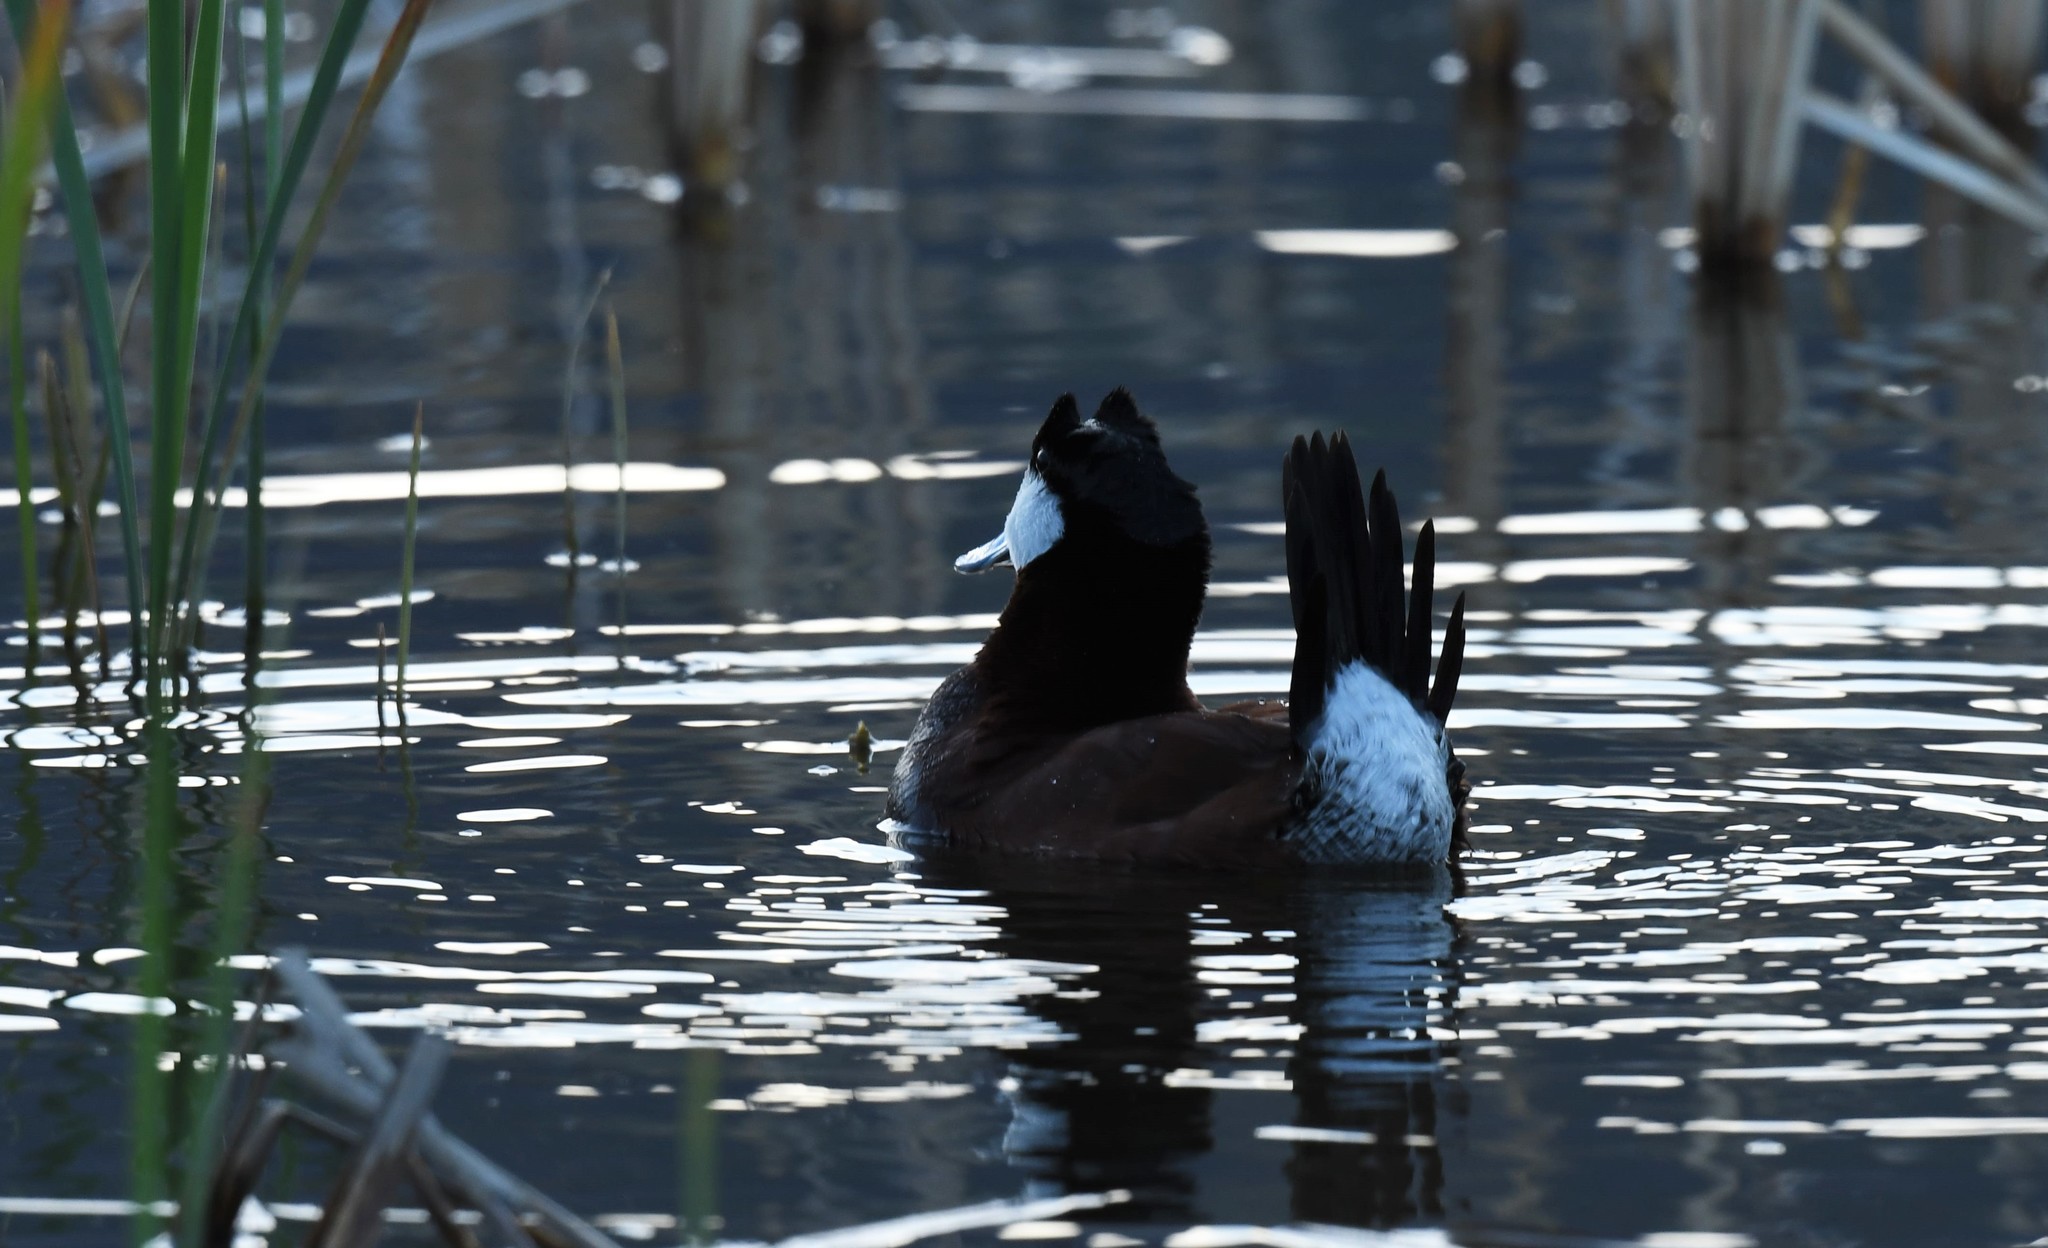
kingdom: Animalia
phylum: Chordata
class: Aves
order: Anseriformes
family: Anatidae
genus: Oxyura
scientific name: Oxyura jamaicensis
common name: Ruddy duck
